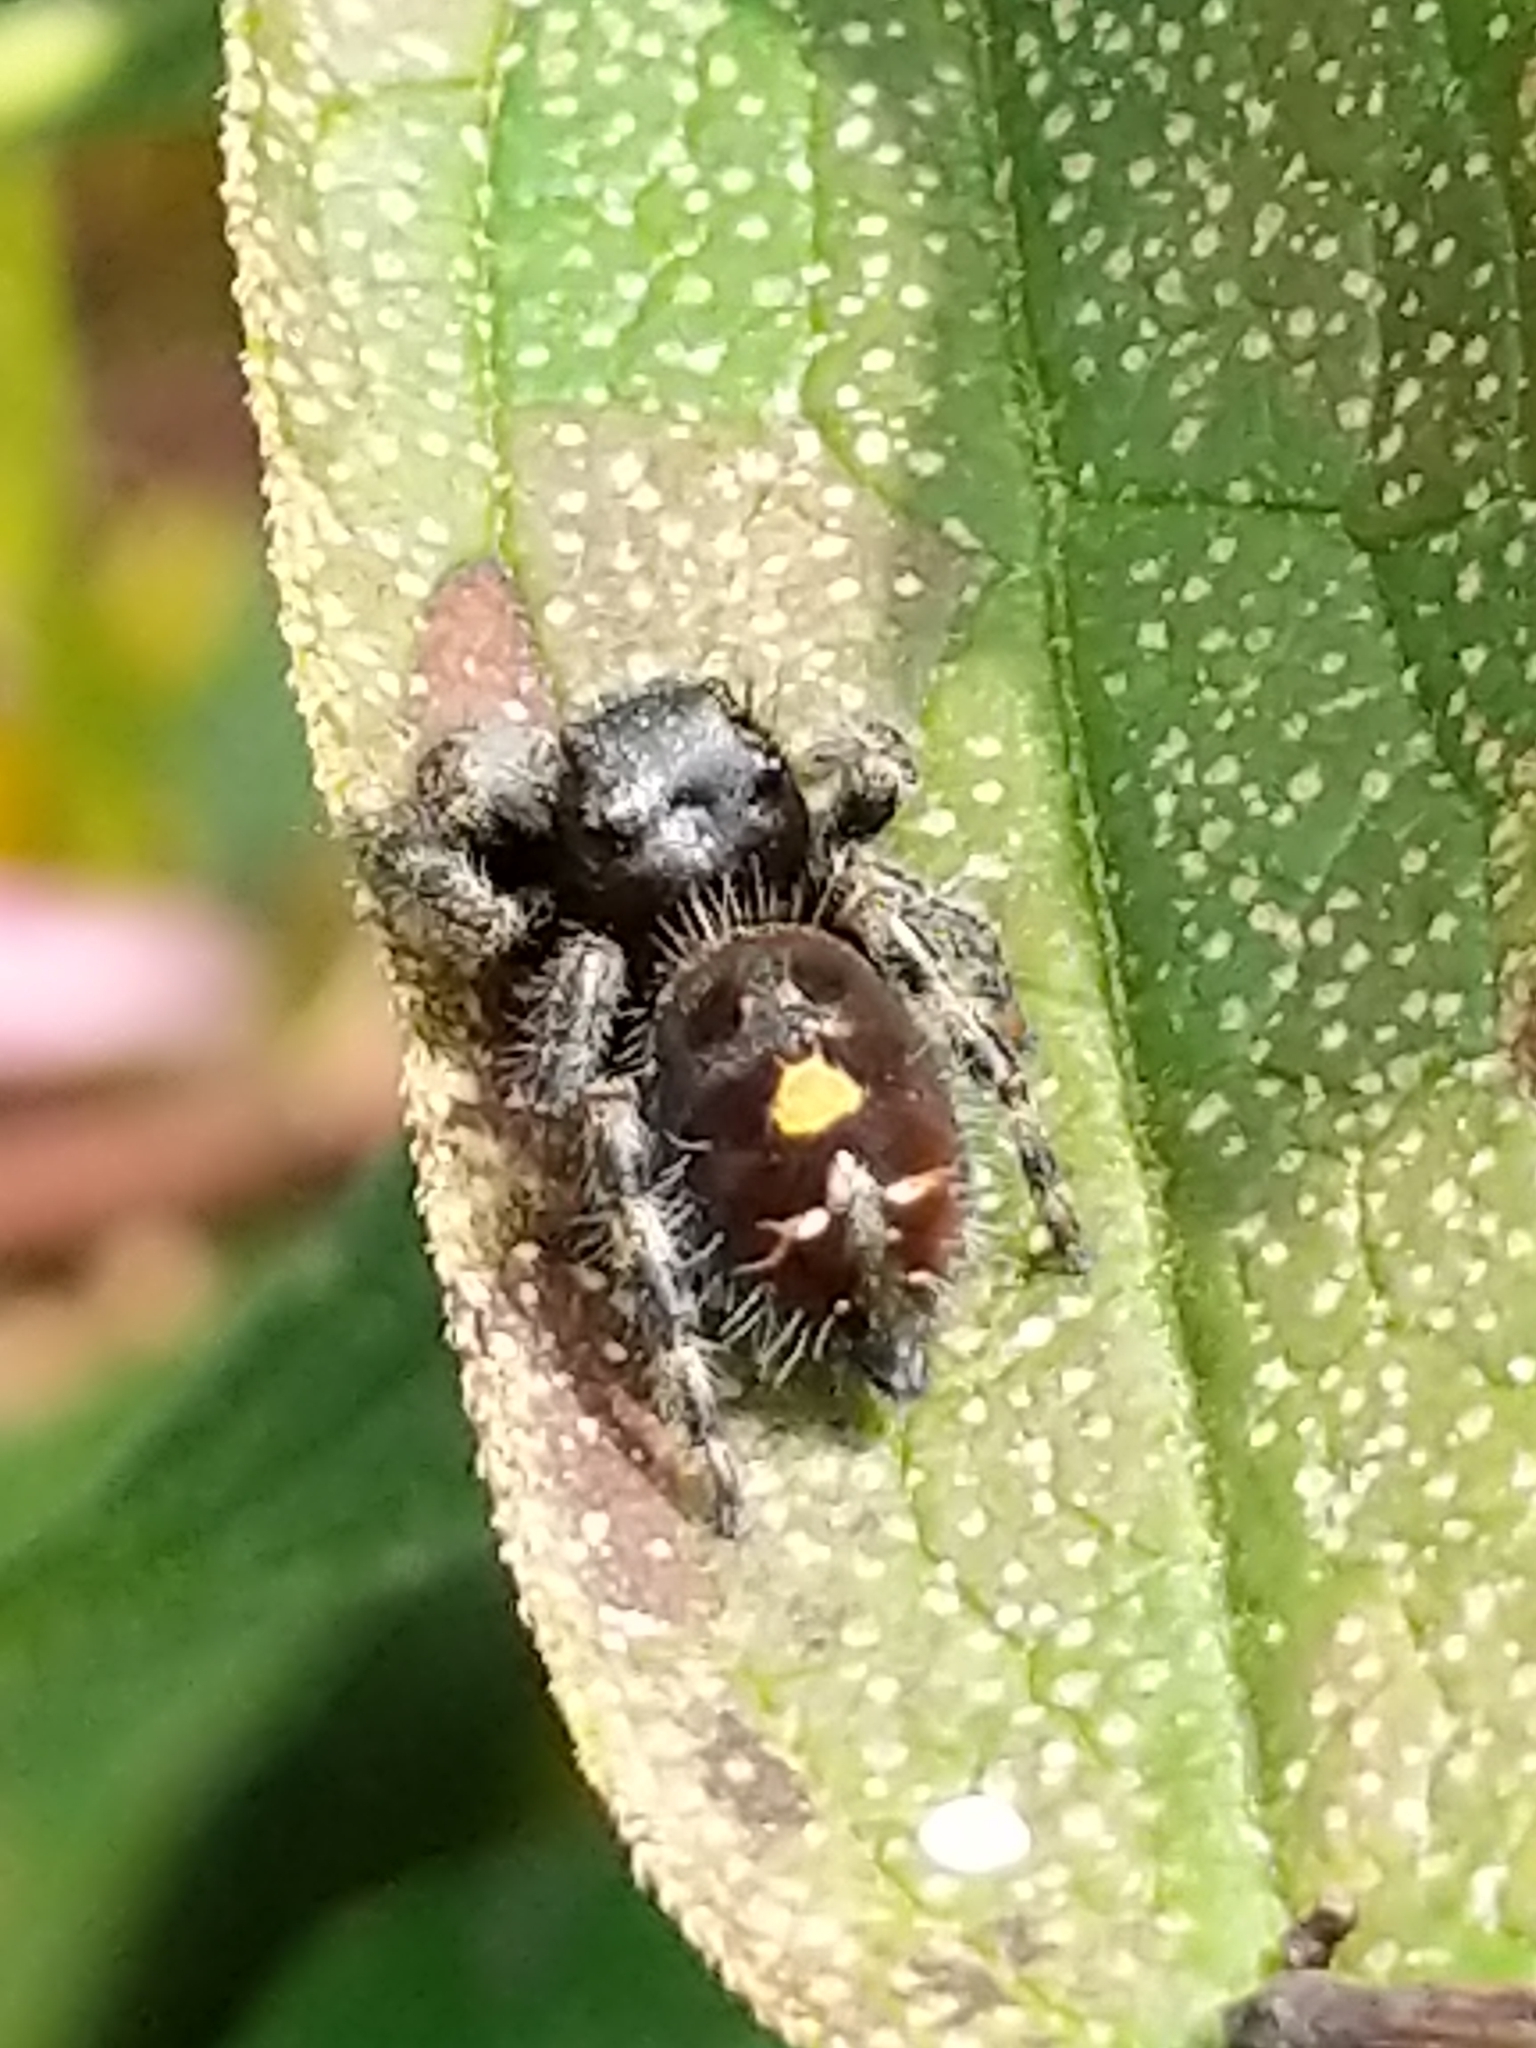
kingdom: Animalia
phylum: Arthropoda
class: Arachnida
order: Araneae
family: Salticidae
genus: Phidippus
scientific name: Phidippus audax
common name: Bold jumper
